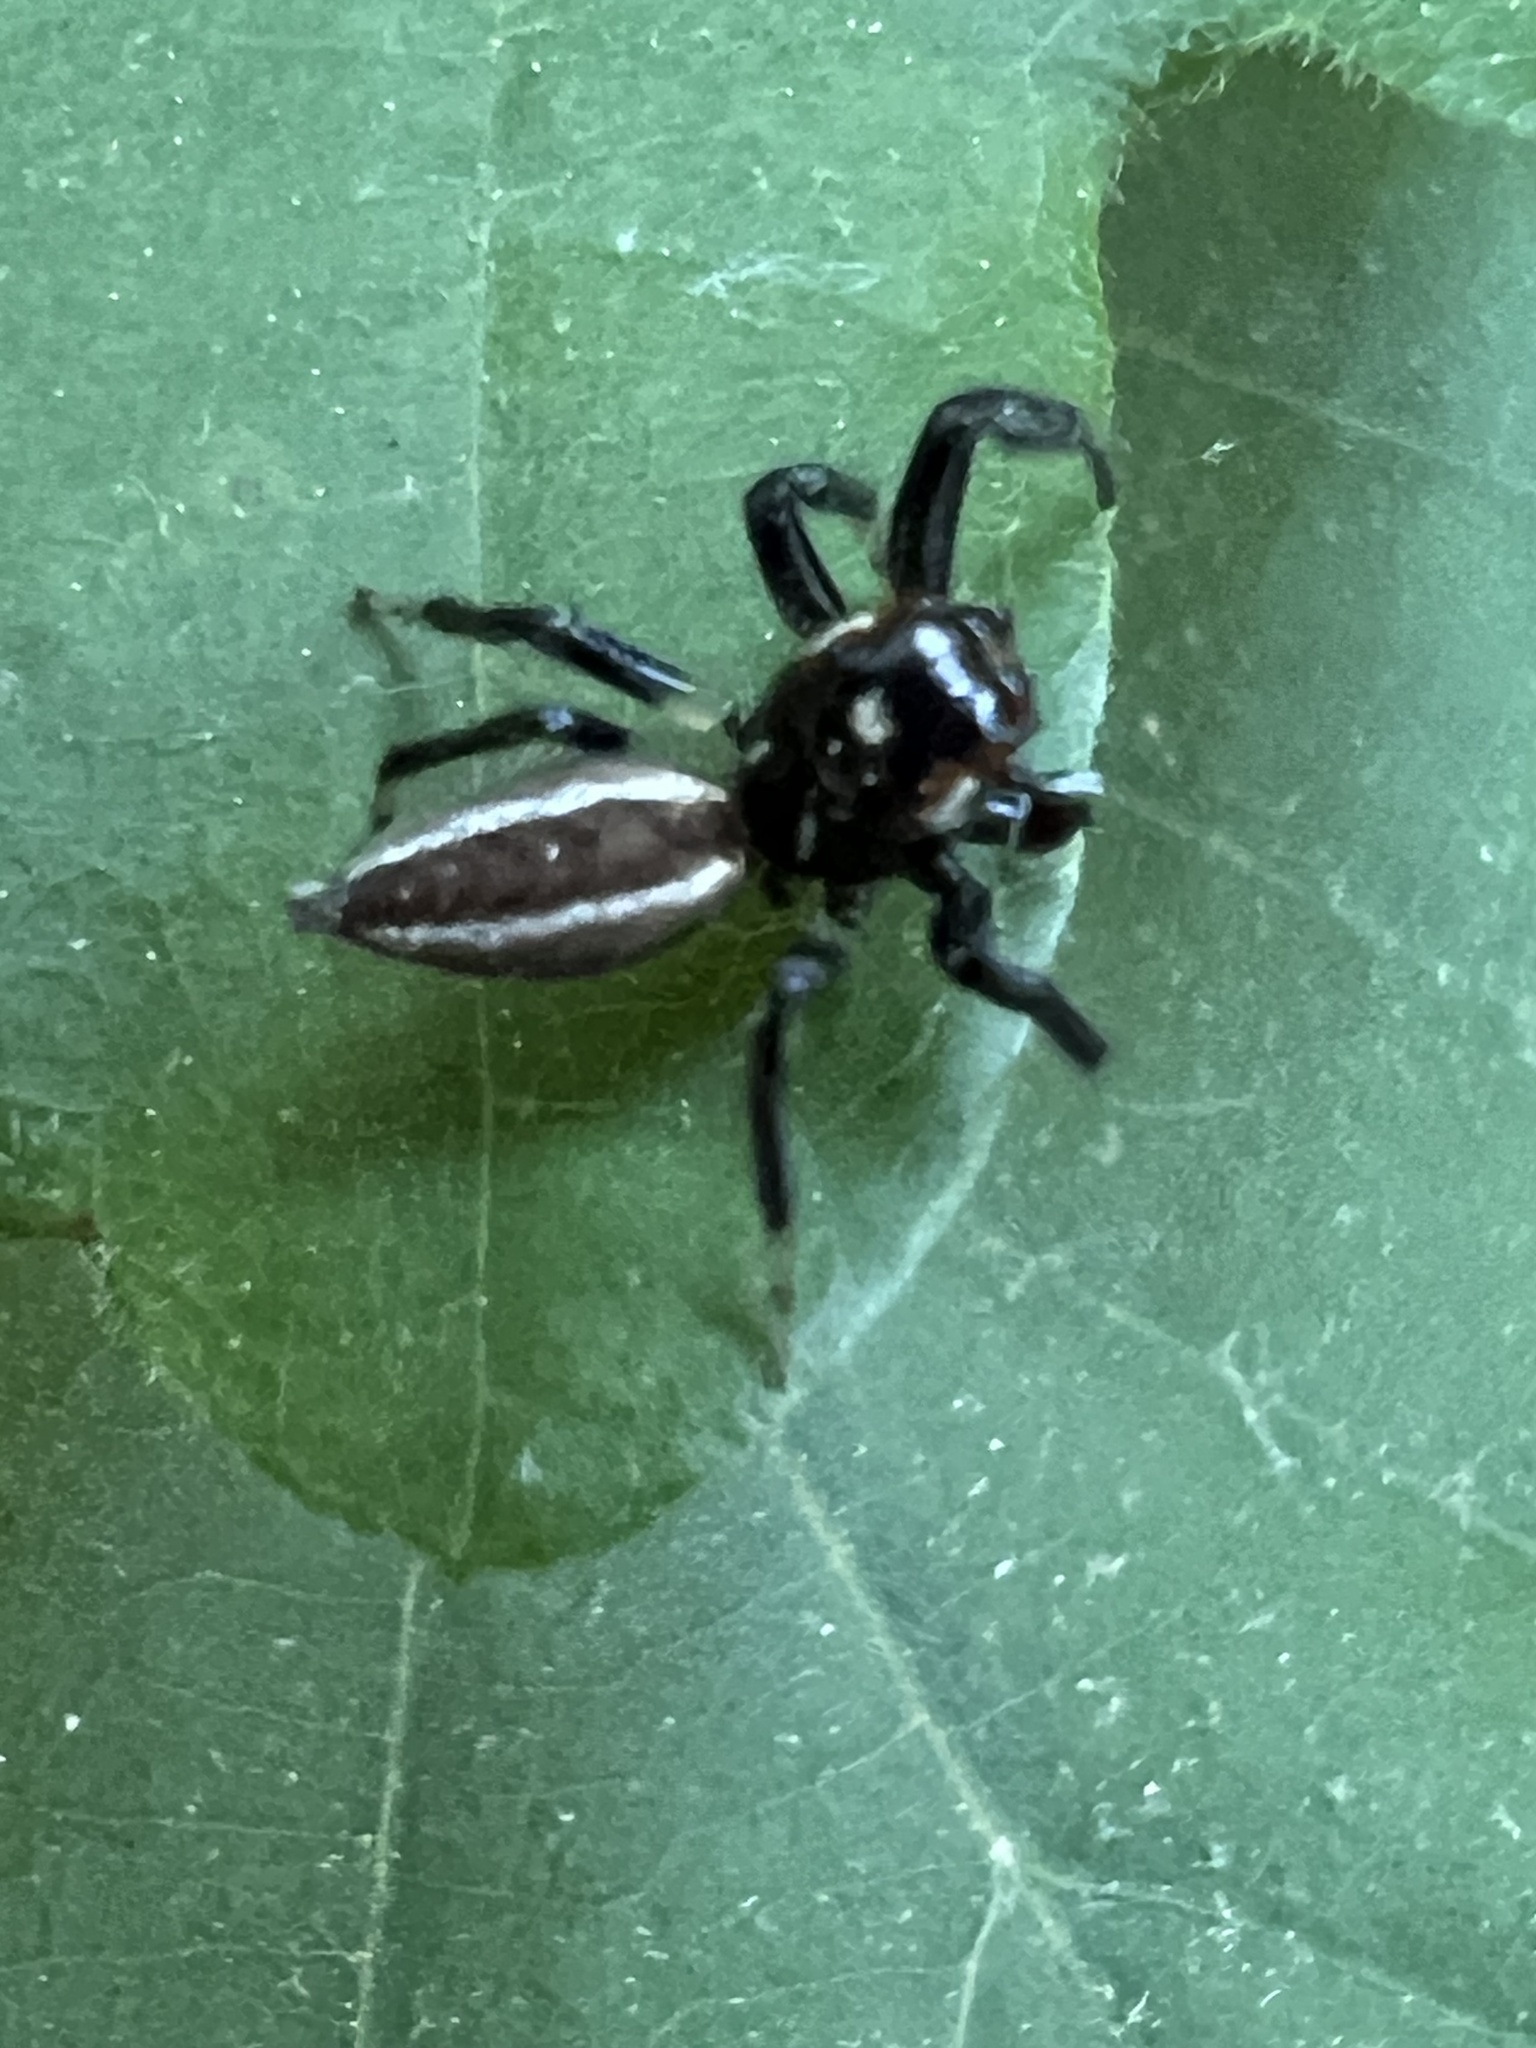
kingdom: Animalia
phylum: Arthropoda
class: Arachnida
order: Araneae
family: Salticidae
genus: Colonus
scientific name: Colonus sylvanus
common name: Jumping spiders
